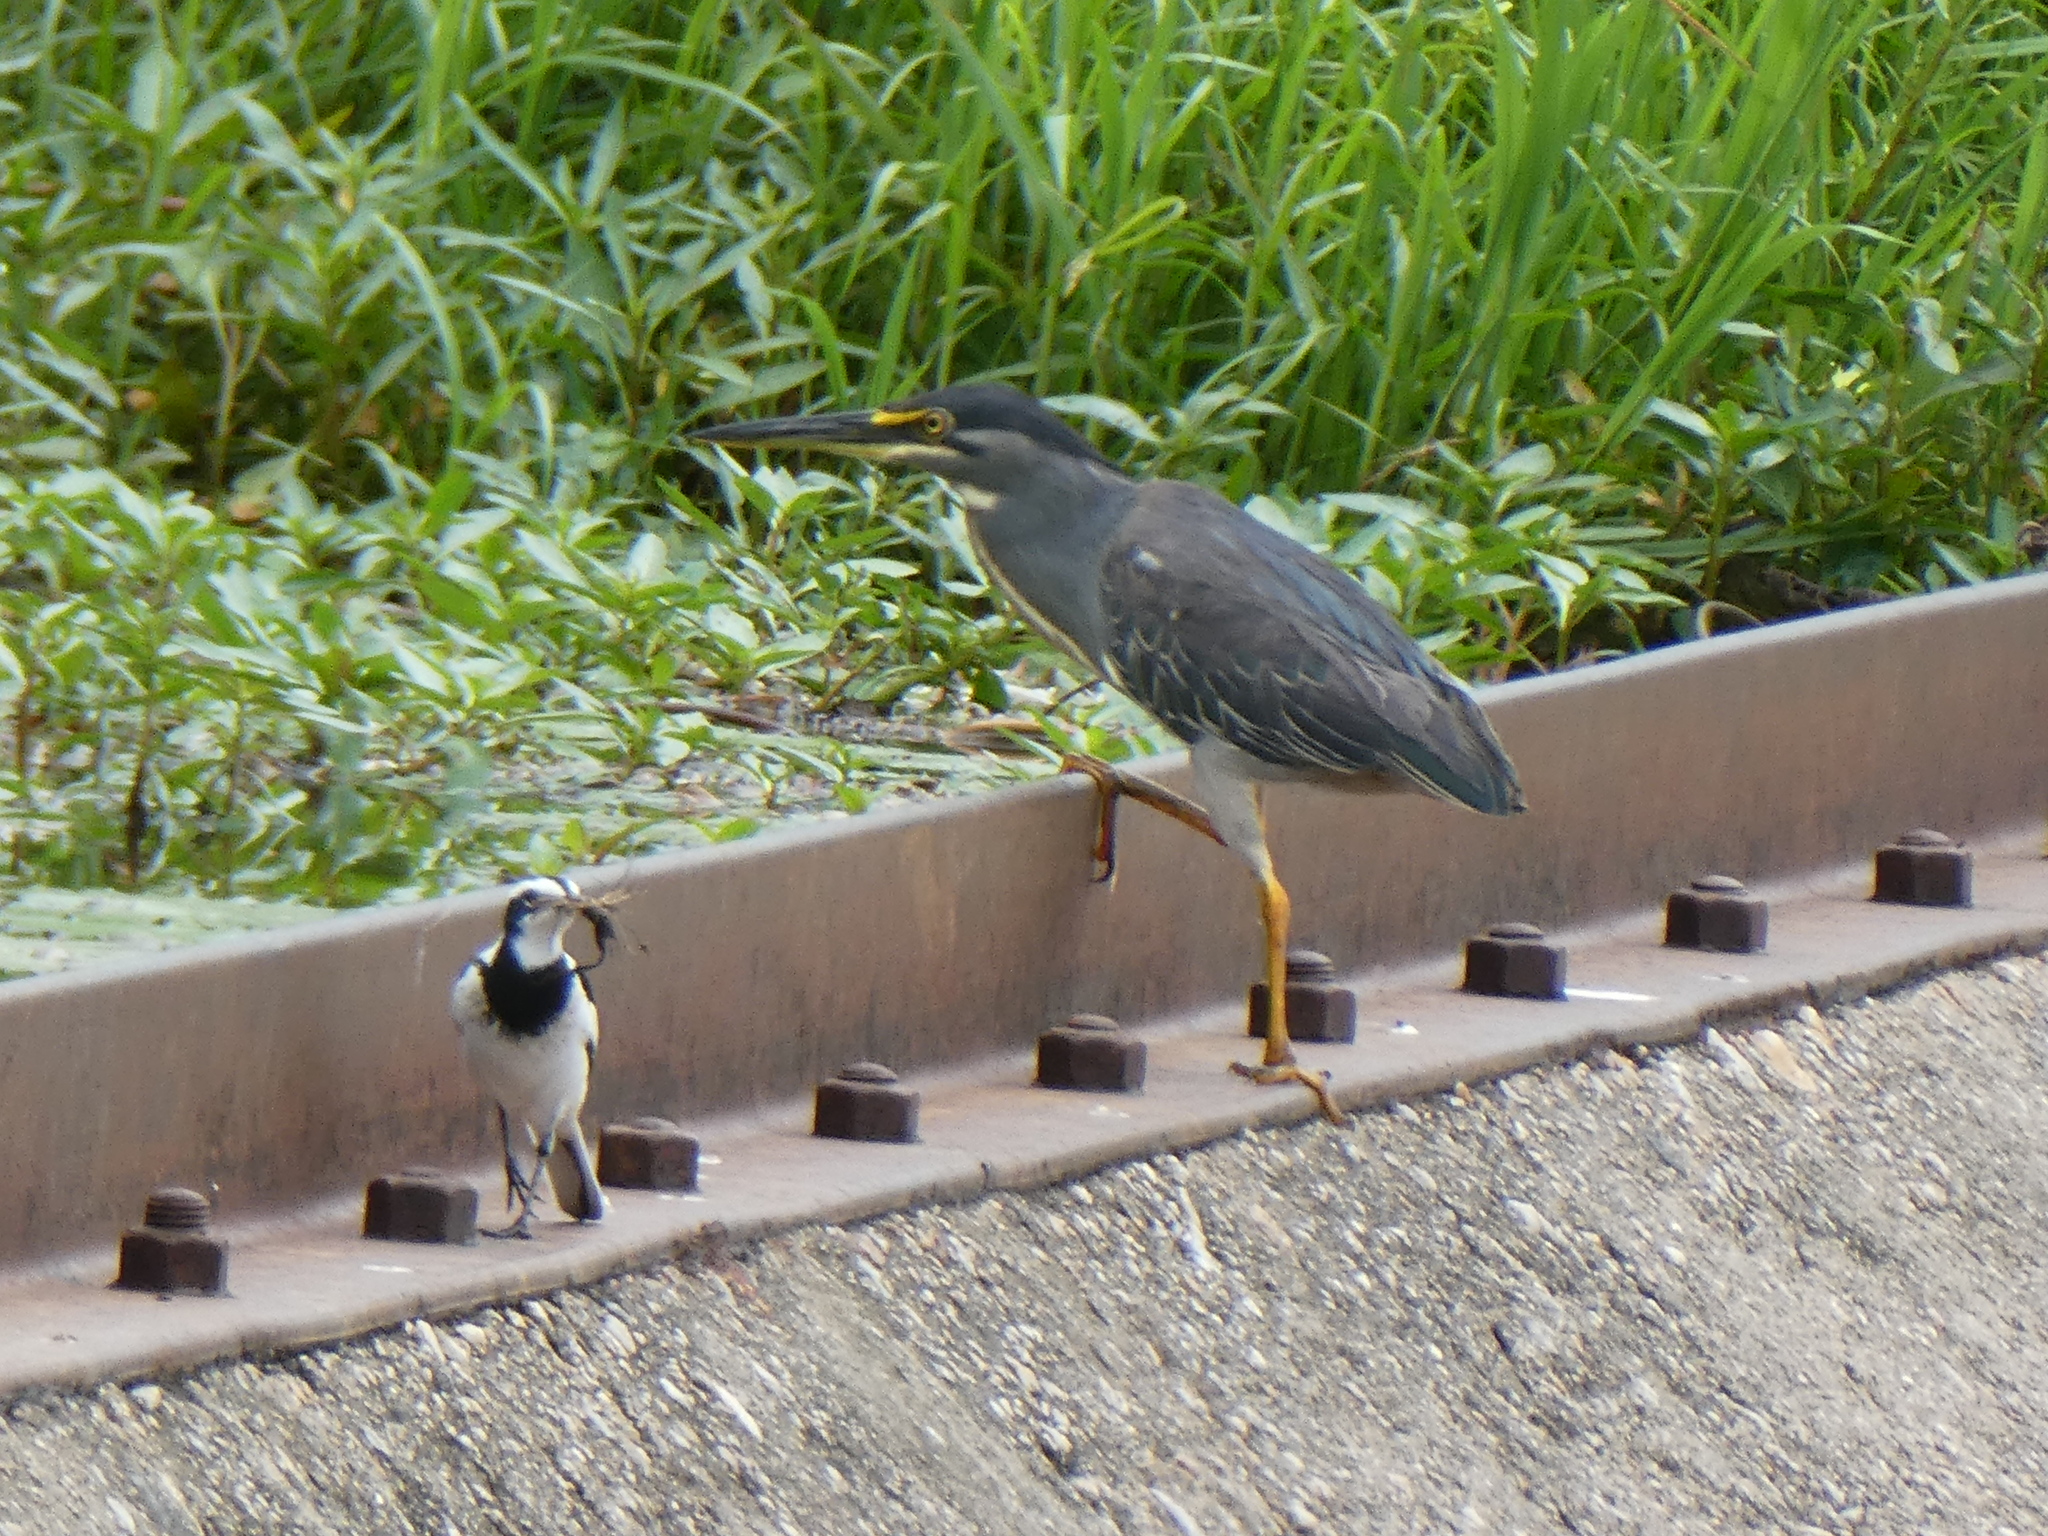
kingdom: Animalia
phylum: Chordata
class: Aves
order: Pelecaniformes
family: Ardeidae
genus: Butorides
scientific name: Butorides striata
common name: Striated heron
